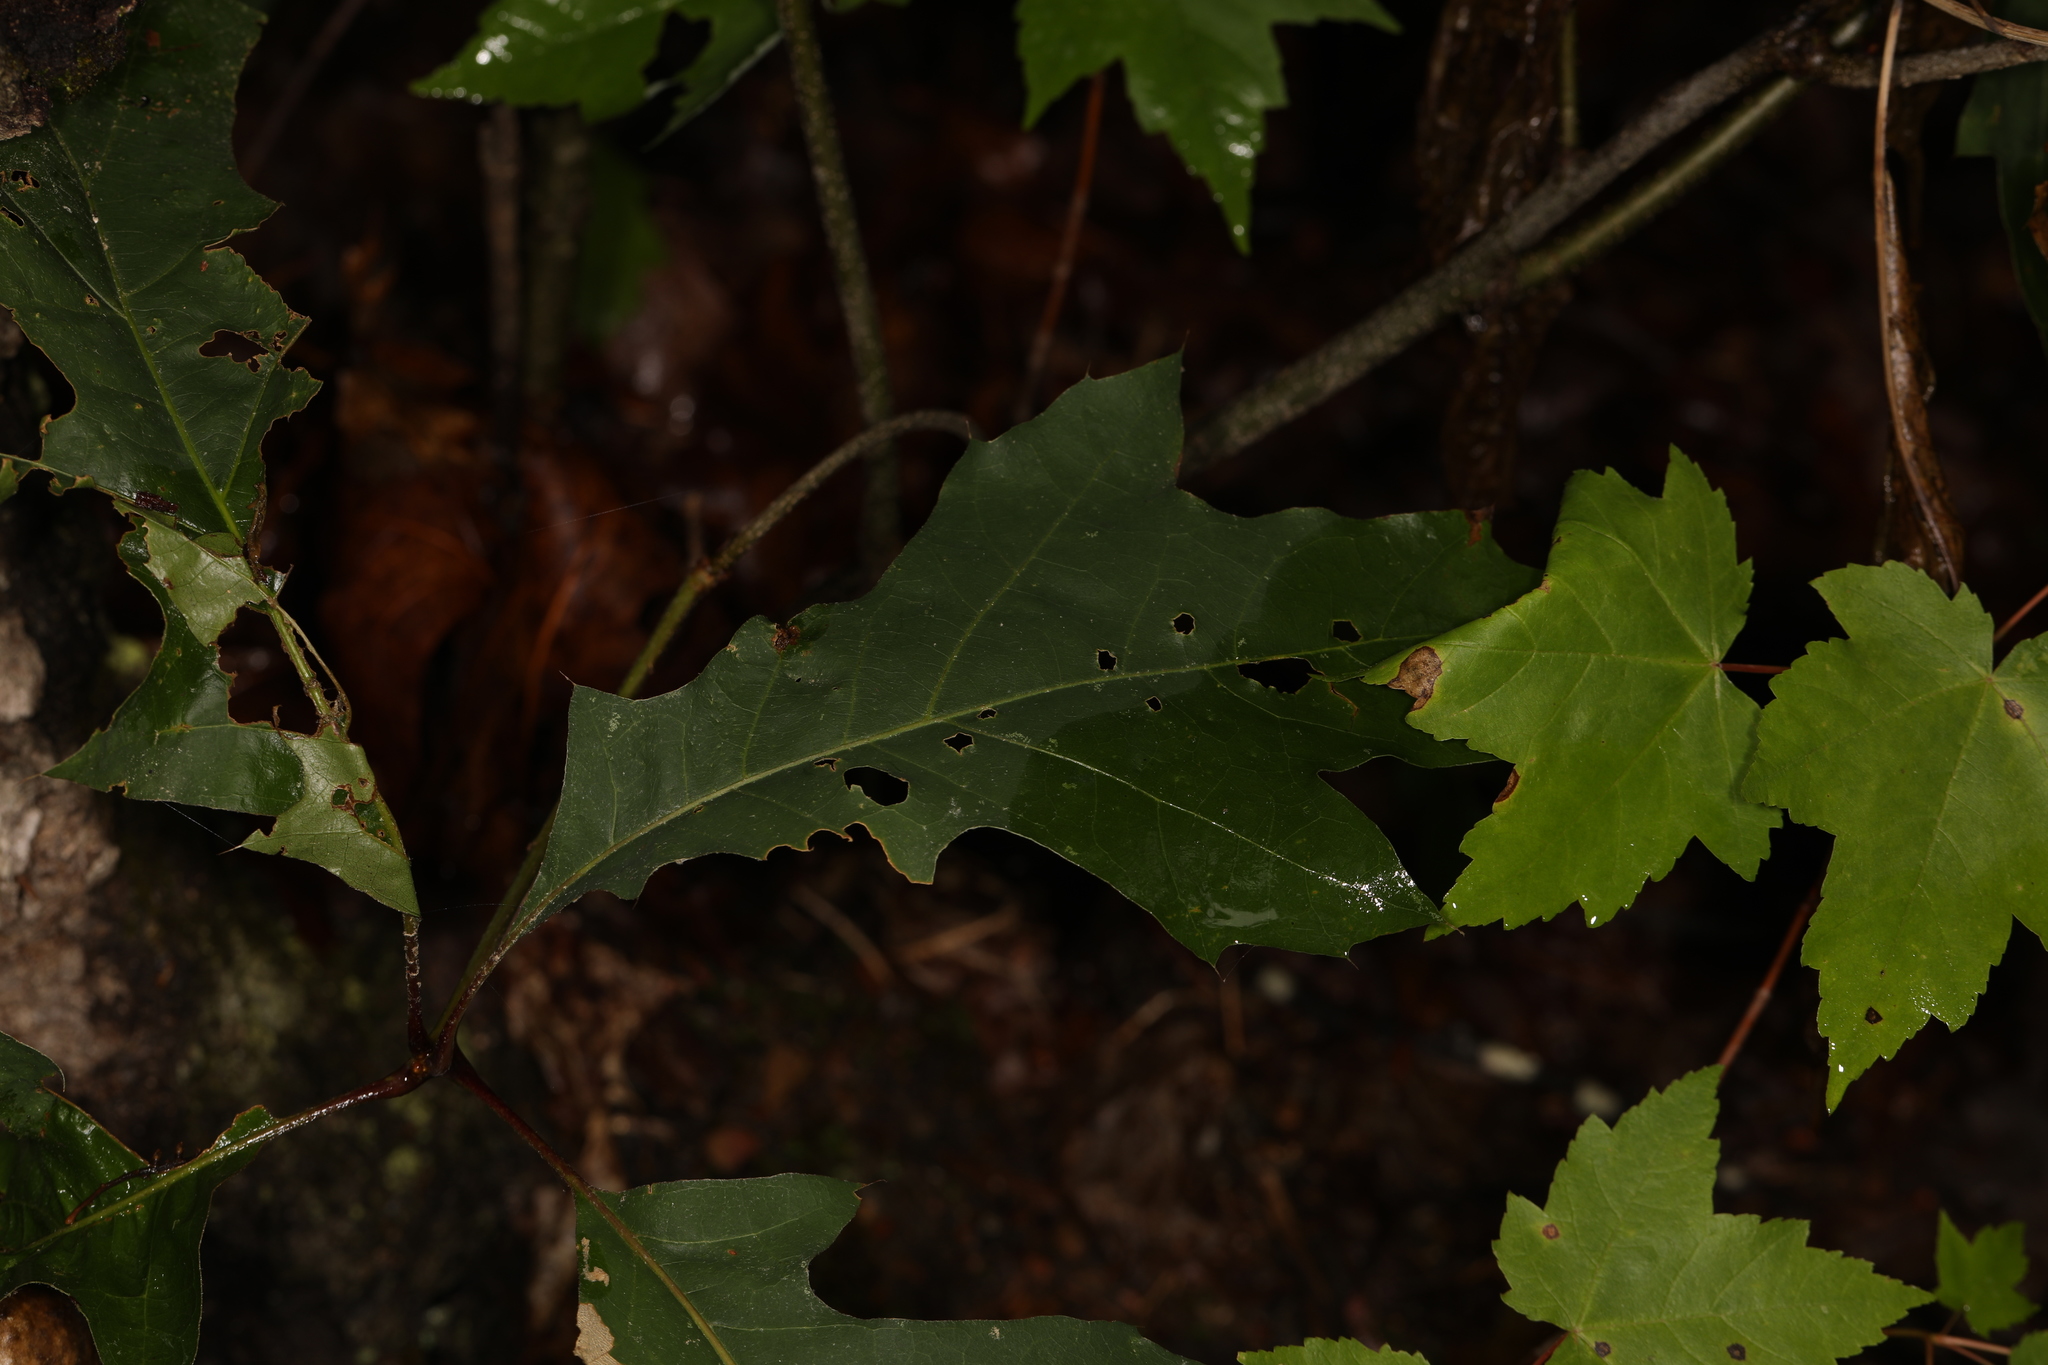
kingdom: Animalia
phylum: Arthropoda
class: Insecta
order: Hymenoptera
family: Cynipidae
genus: Amphibolips
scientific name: Amphibolips
